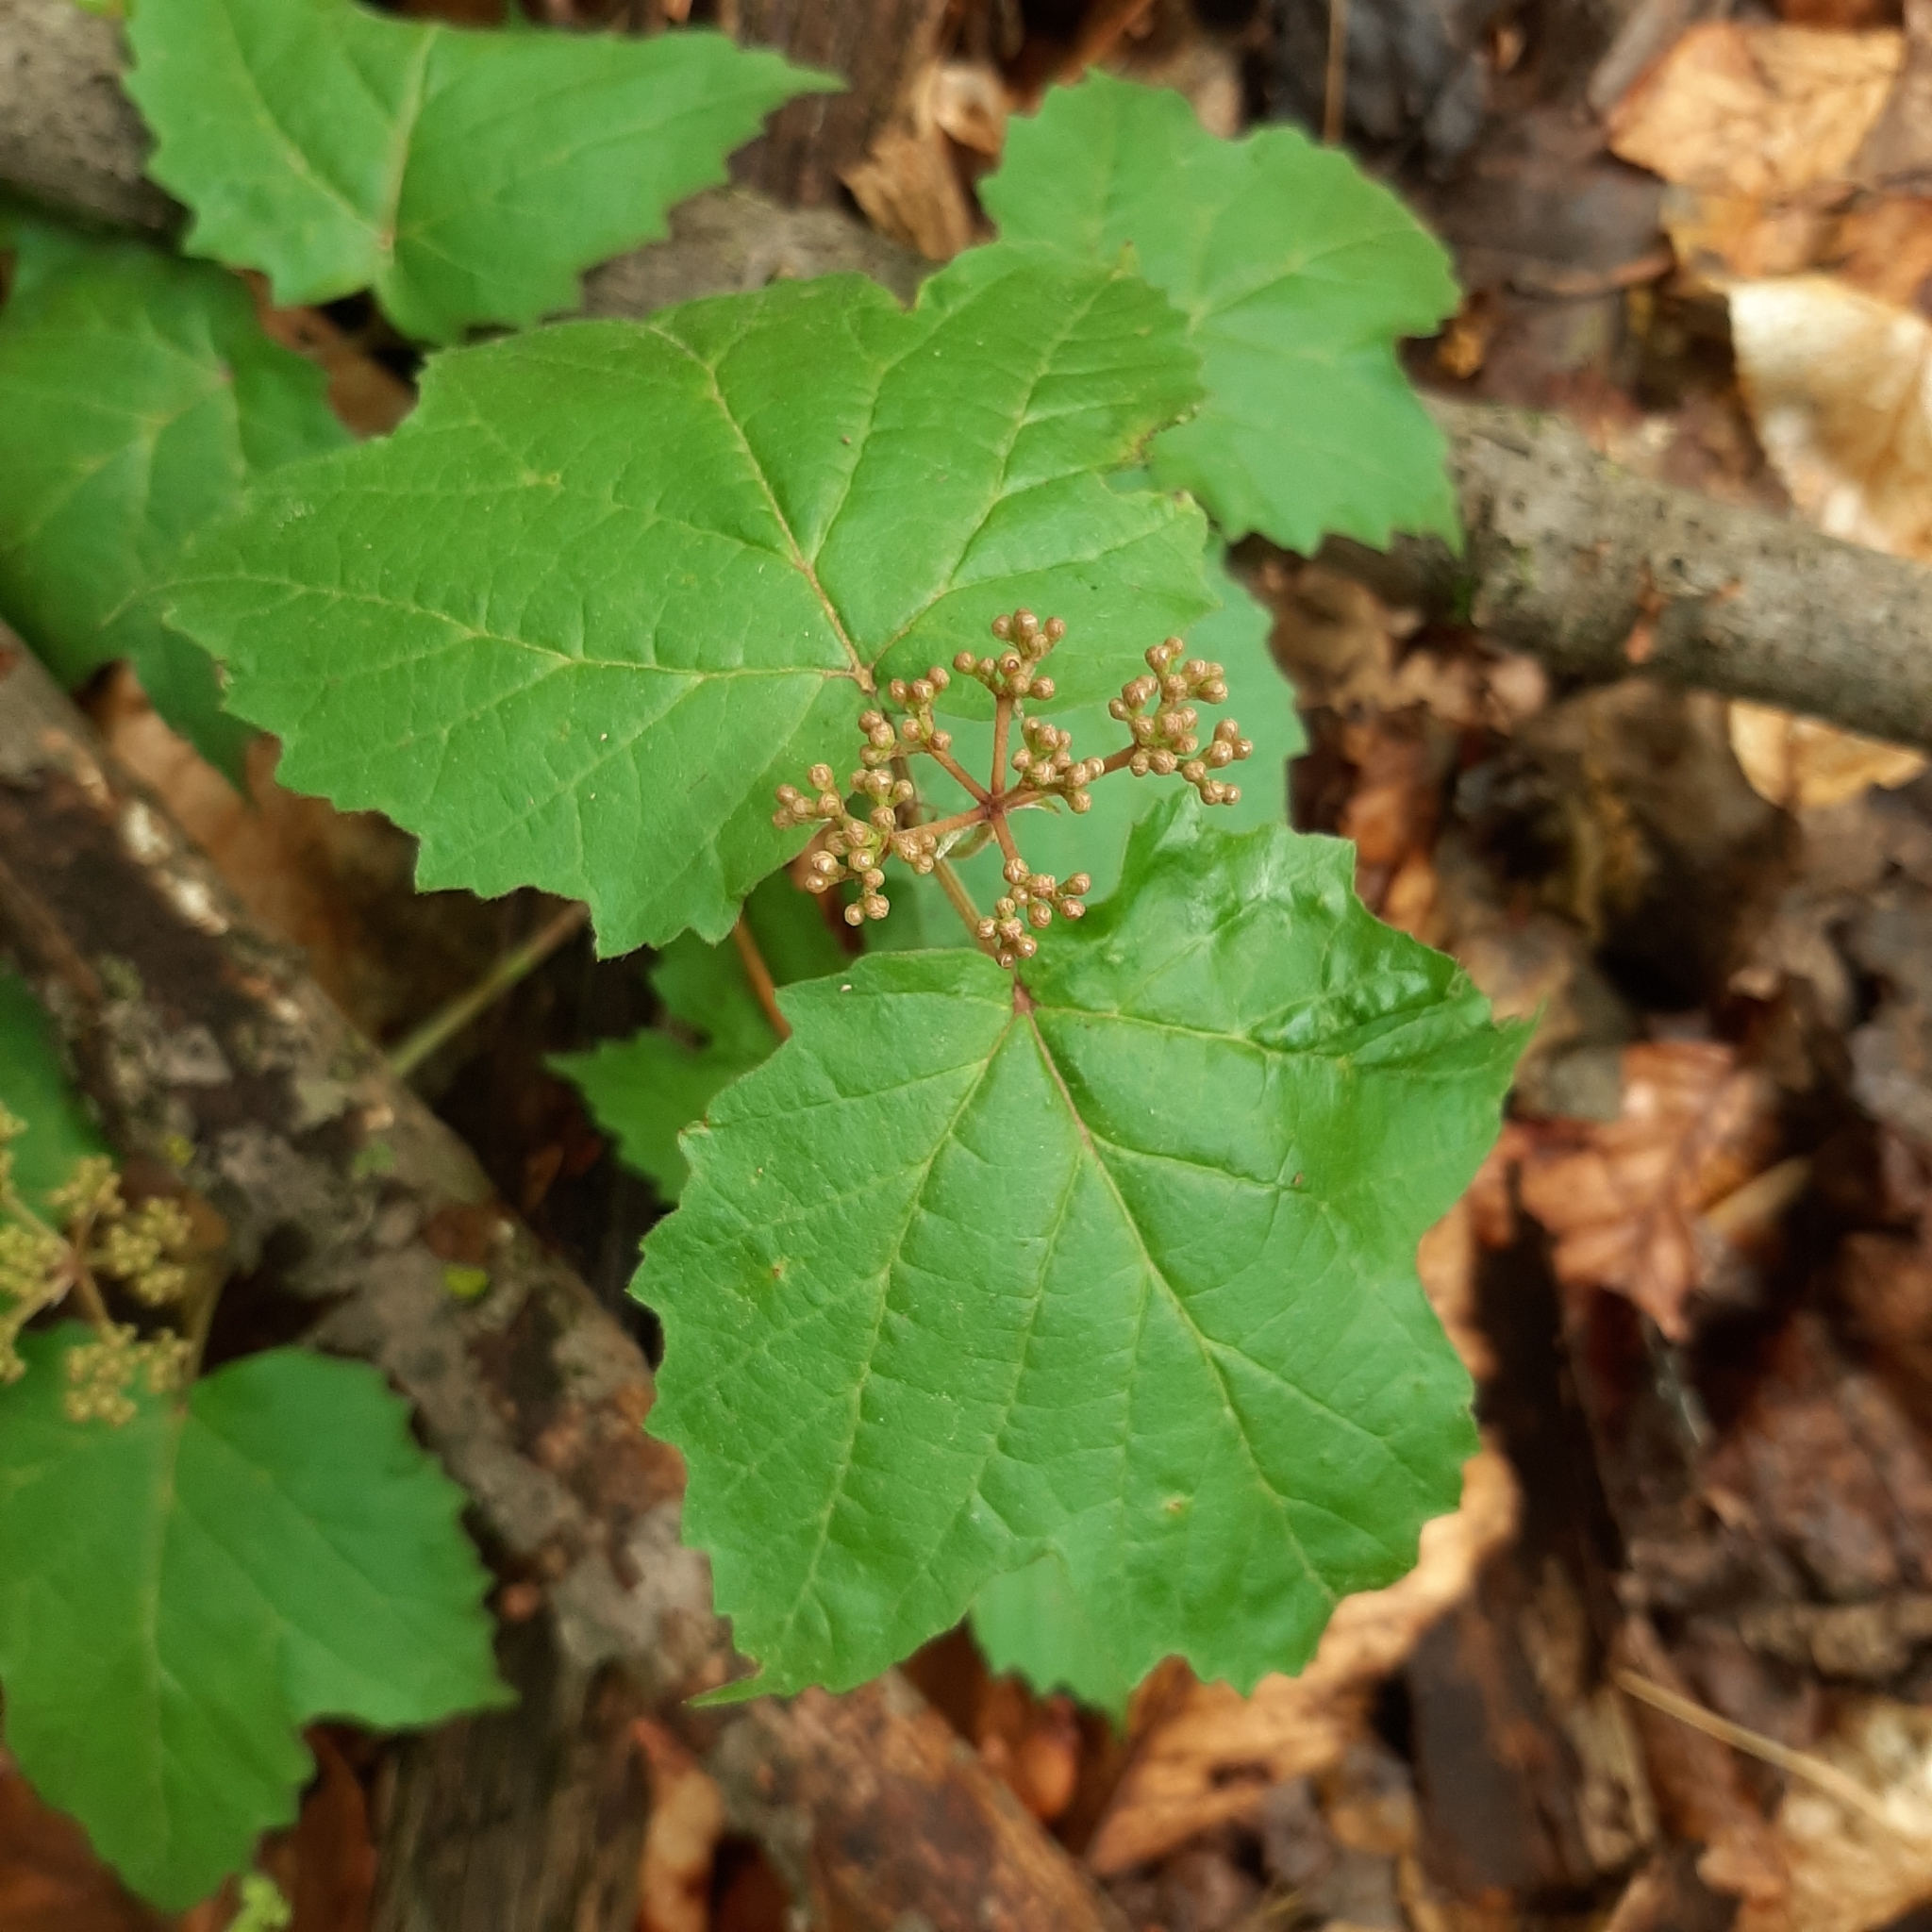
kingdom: Plantae
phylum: Tracheophyta
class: Magnoliopsida
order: Dipsacales
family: Viburnaceae
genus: Viburnum
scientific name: Viburnum acerifolium
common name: Dockmackie
